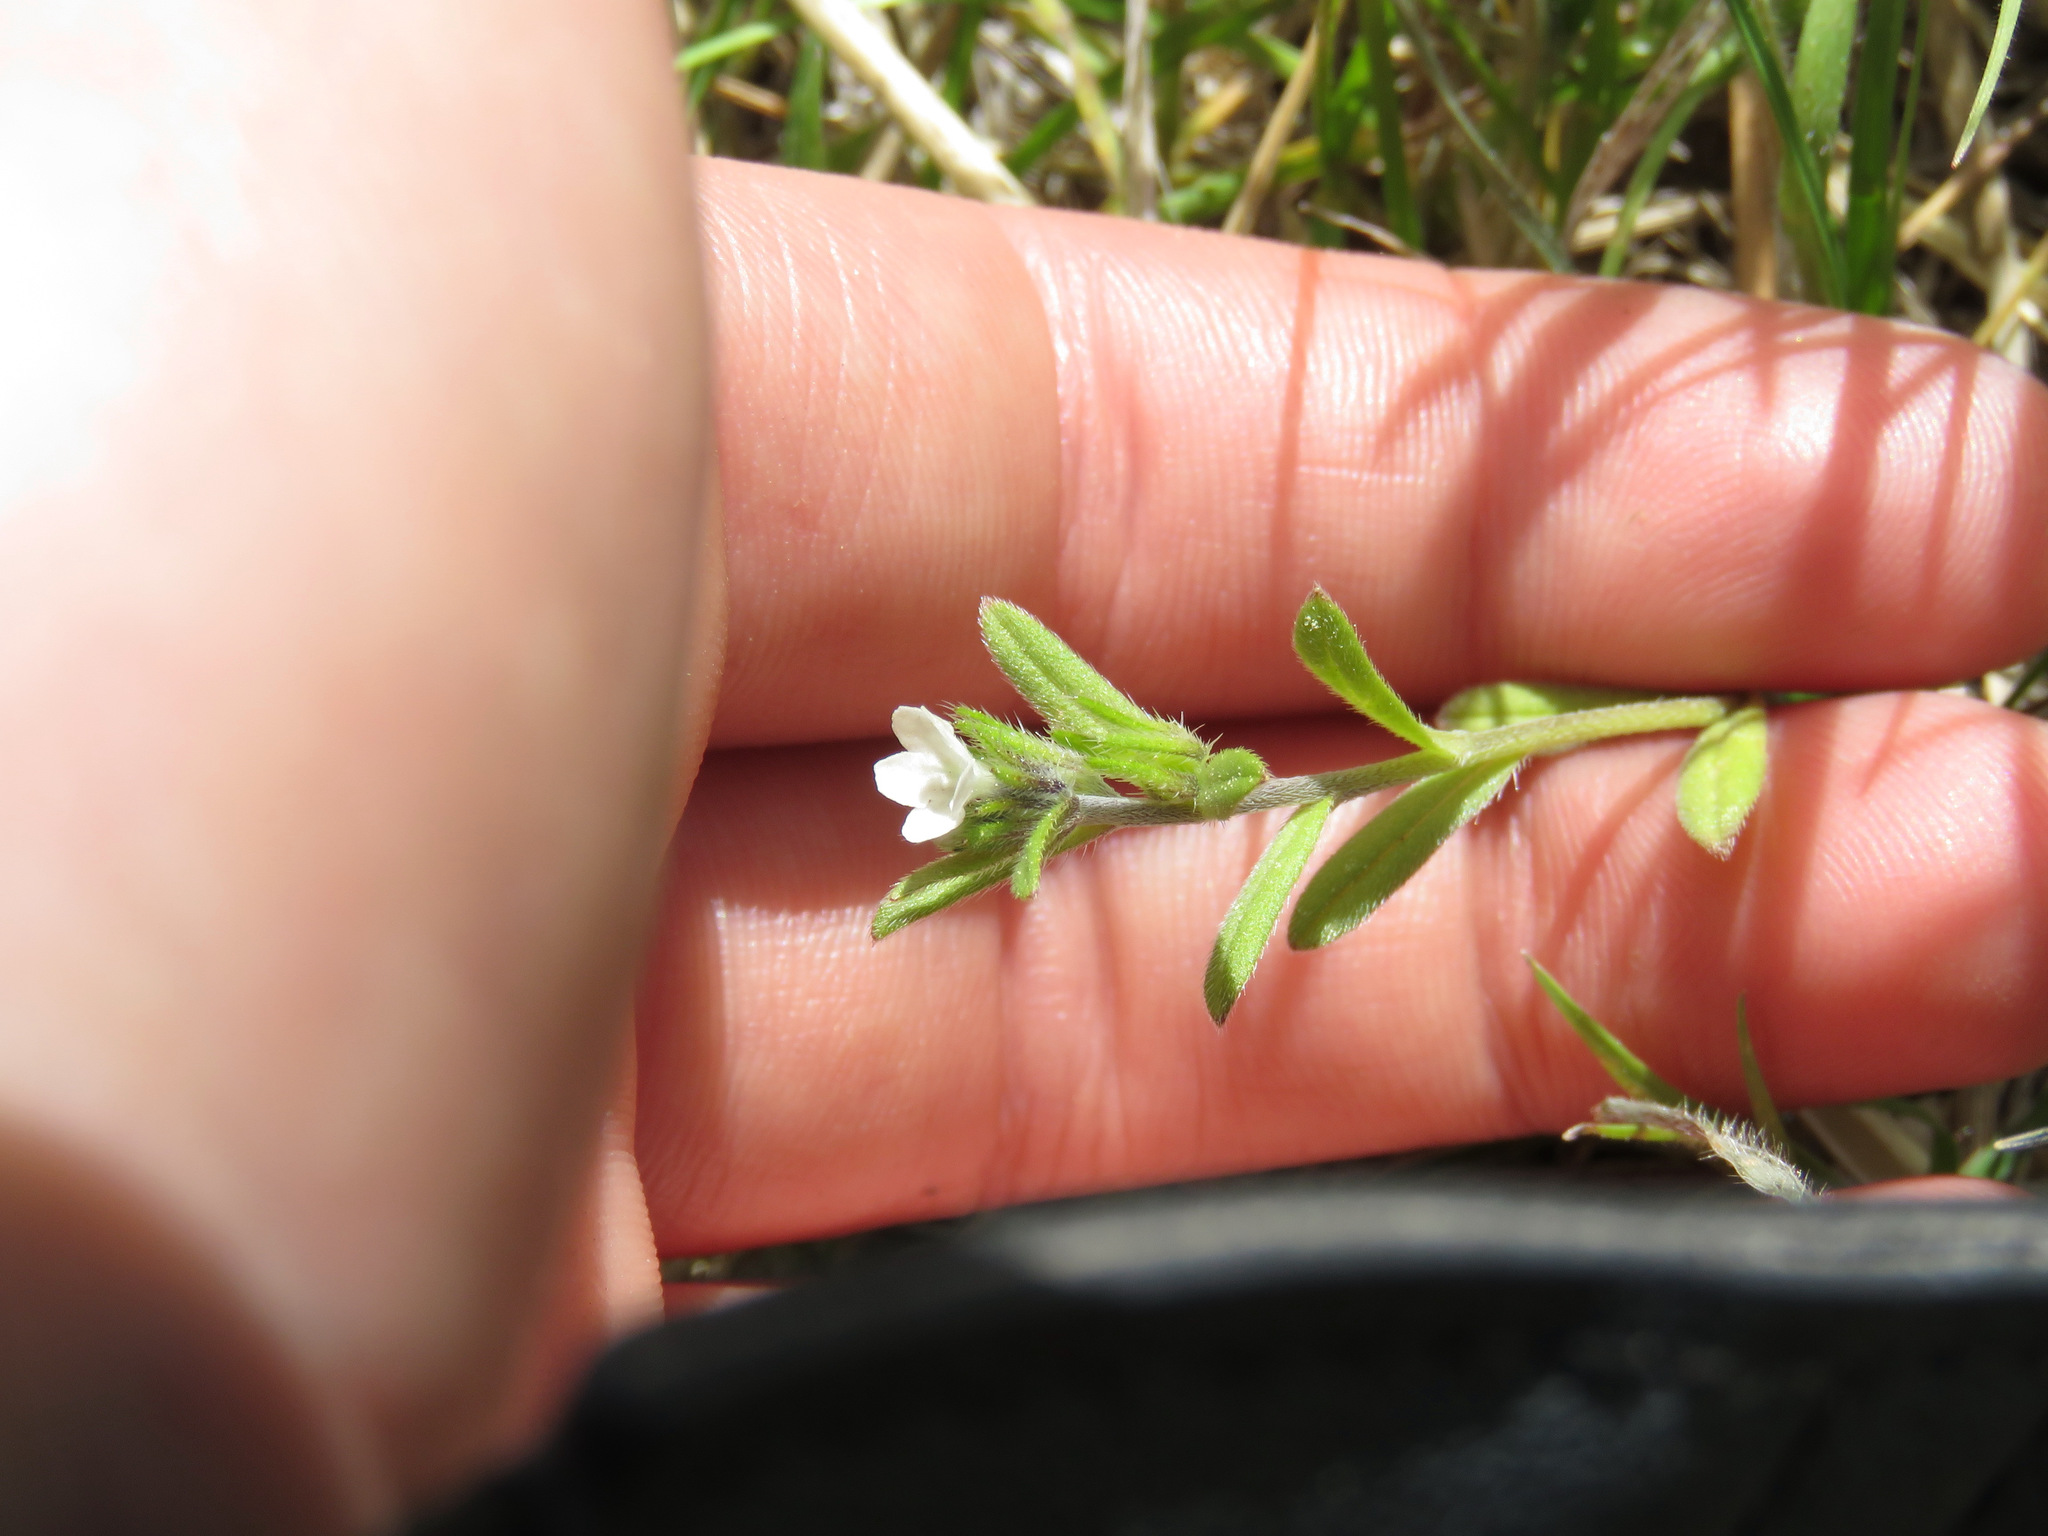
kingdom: Plantae
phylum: Tracheophyta
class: Magnoliopsida
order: Boraginales
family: Boraginaceae
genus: Buglossoides
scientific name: Buglossoides arvensis
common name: Corn gromwell
